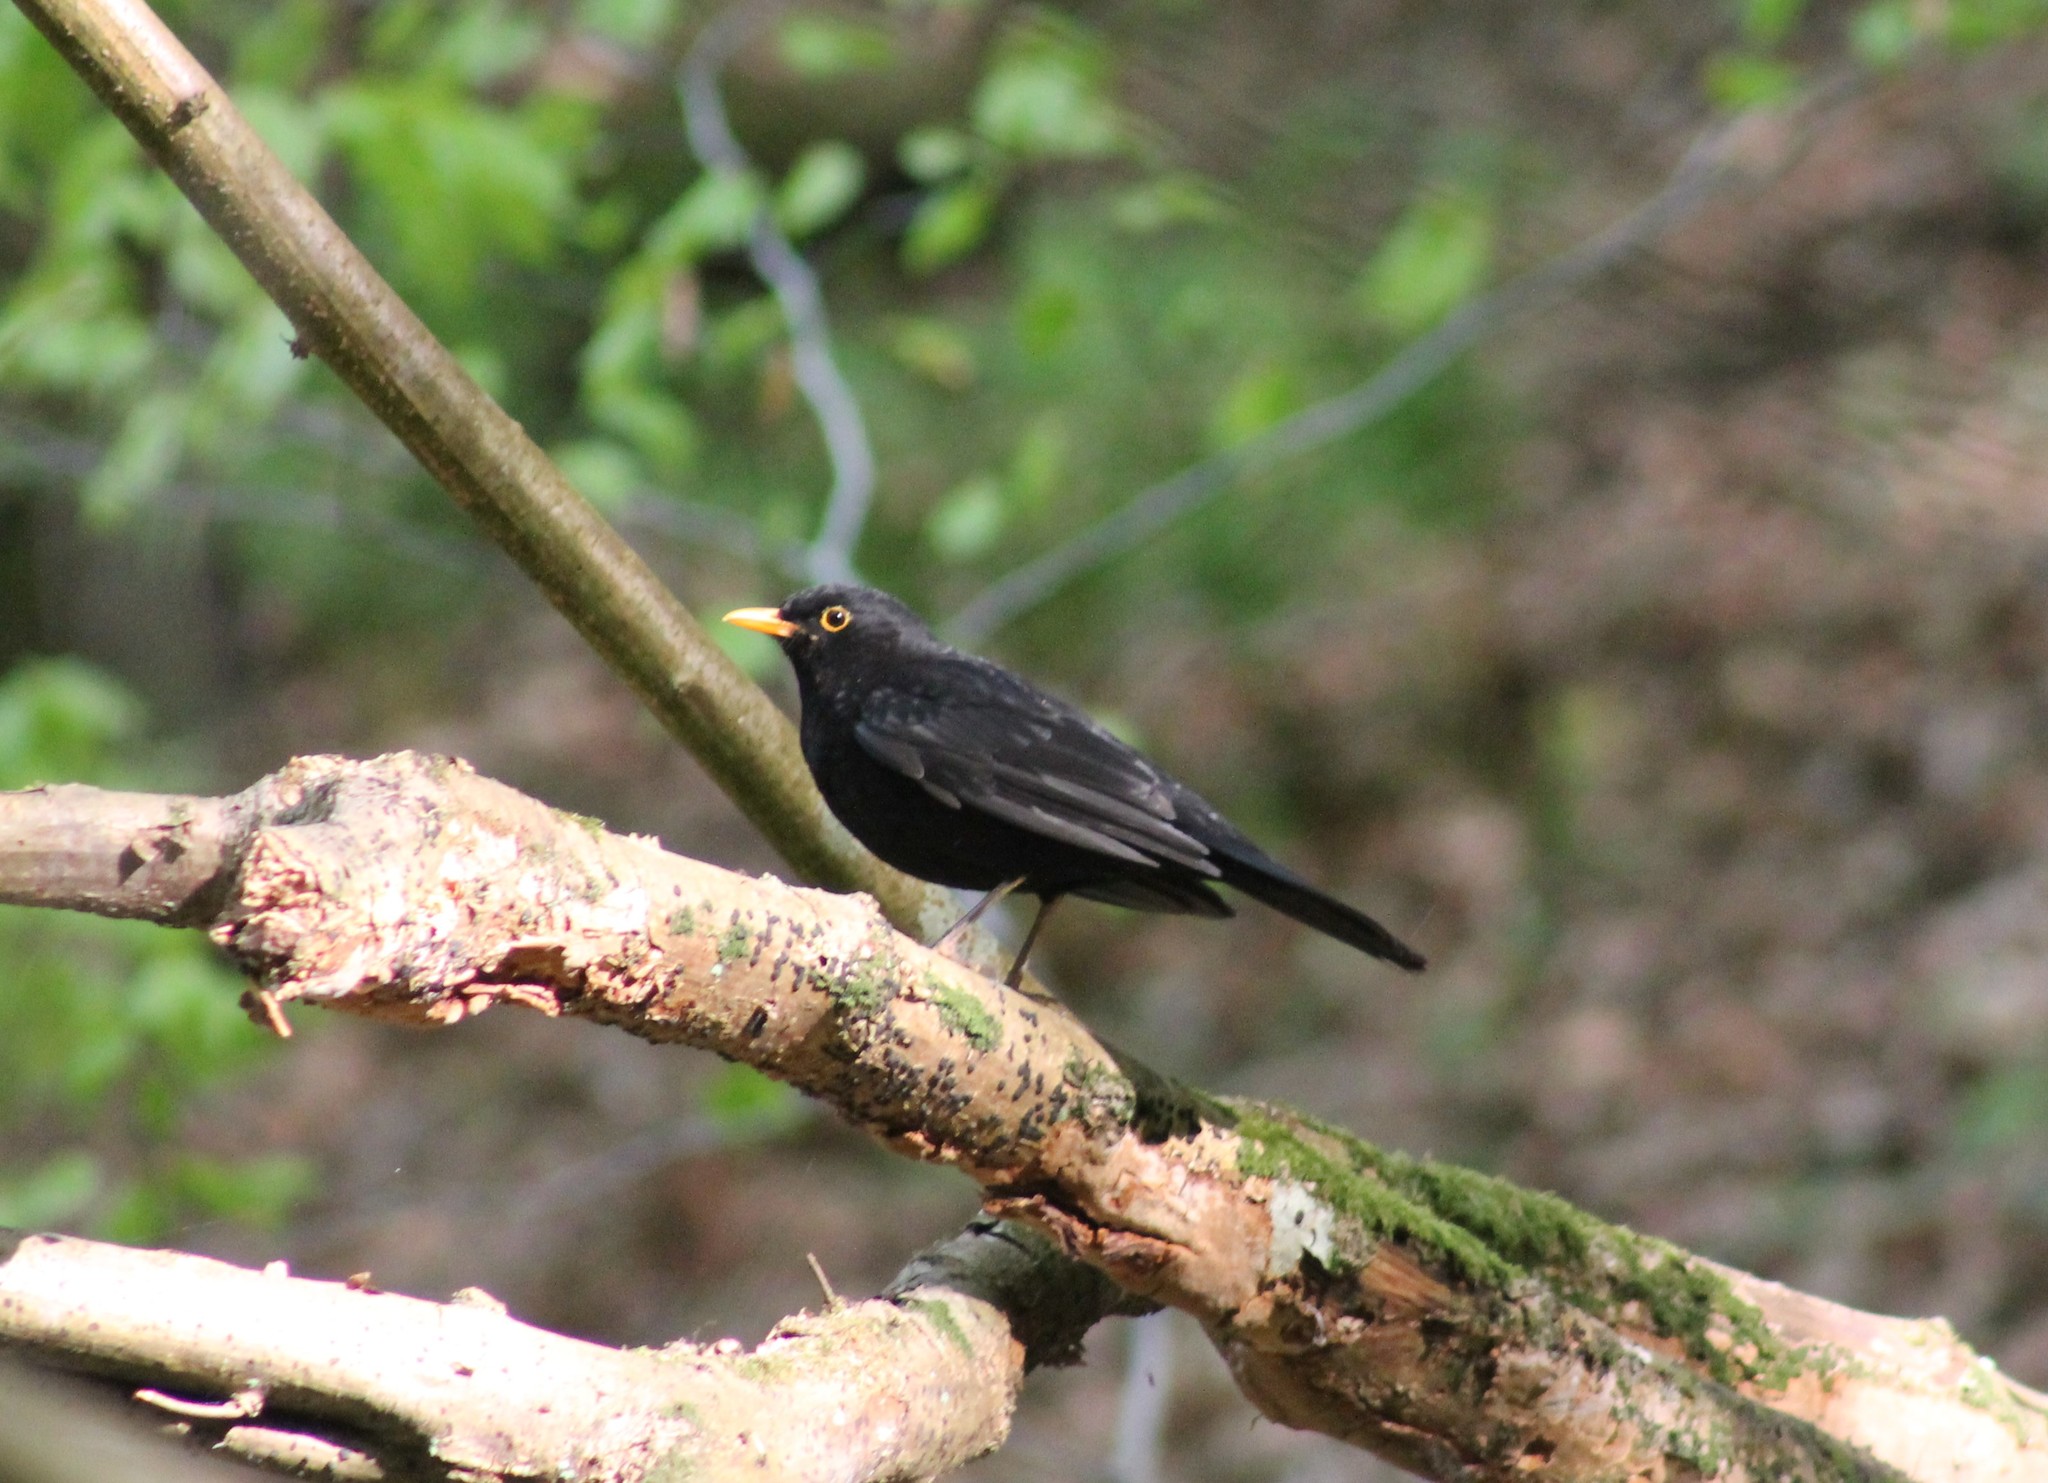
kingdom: Animalia
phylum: Chordata
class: Aves
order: Passeriformes
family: Turdidae
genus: Turdus
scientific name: Turdus merula
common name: Common blackbird
